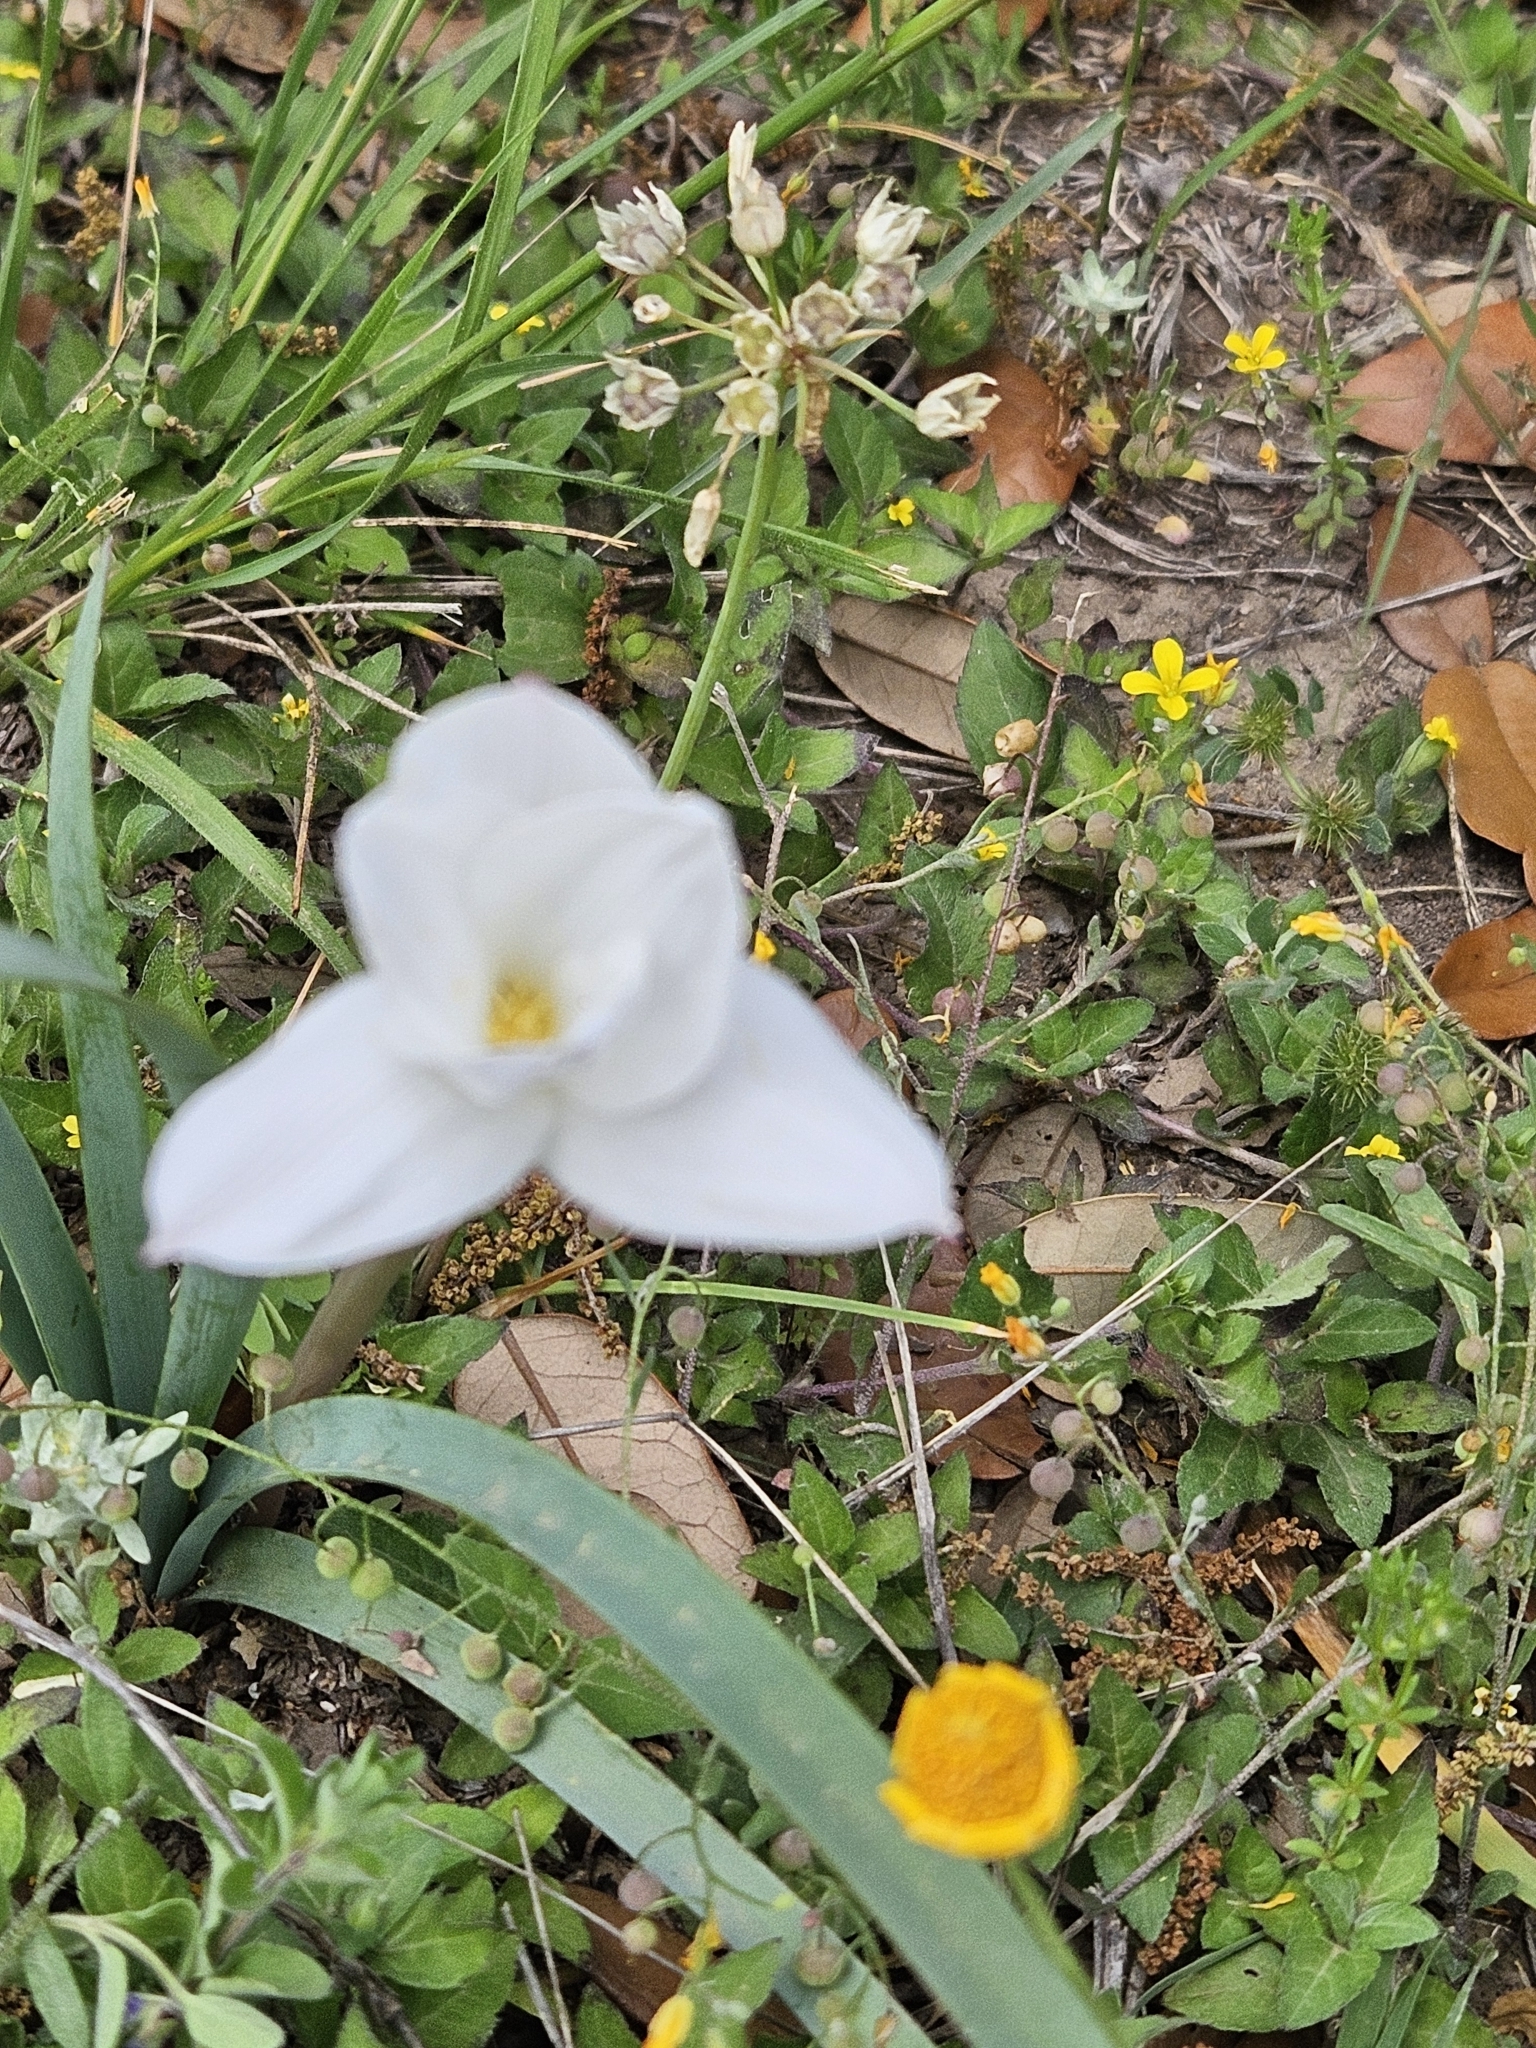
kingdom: Plantae
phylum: Tracheophyta
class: Liliopsida
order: Asparagales
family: Amaryllidaceae
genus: Zephyranthes
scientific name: Zephyranthes drummondii
